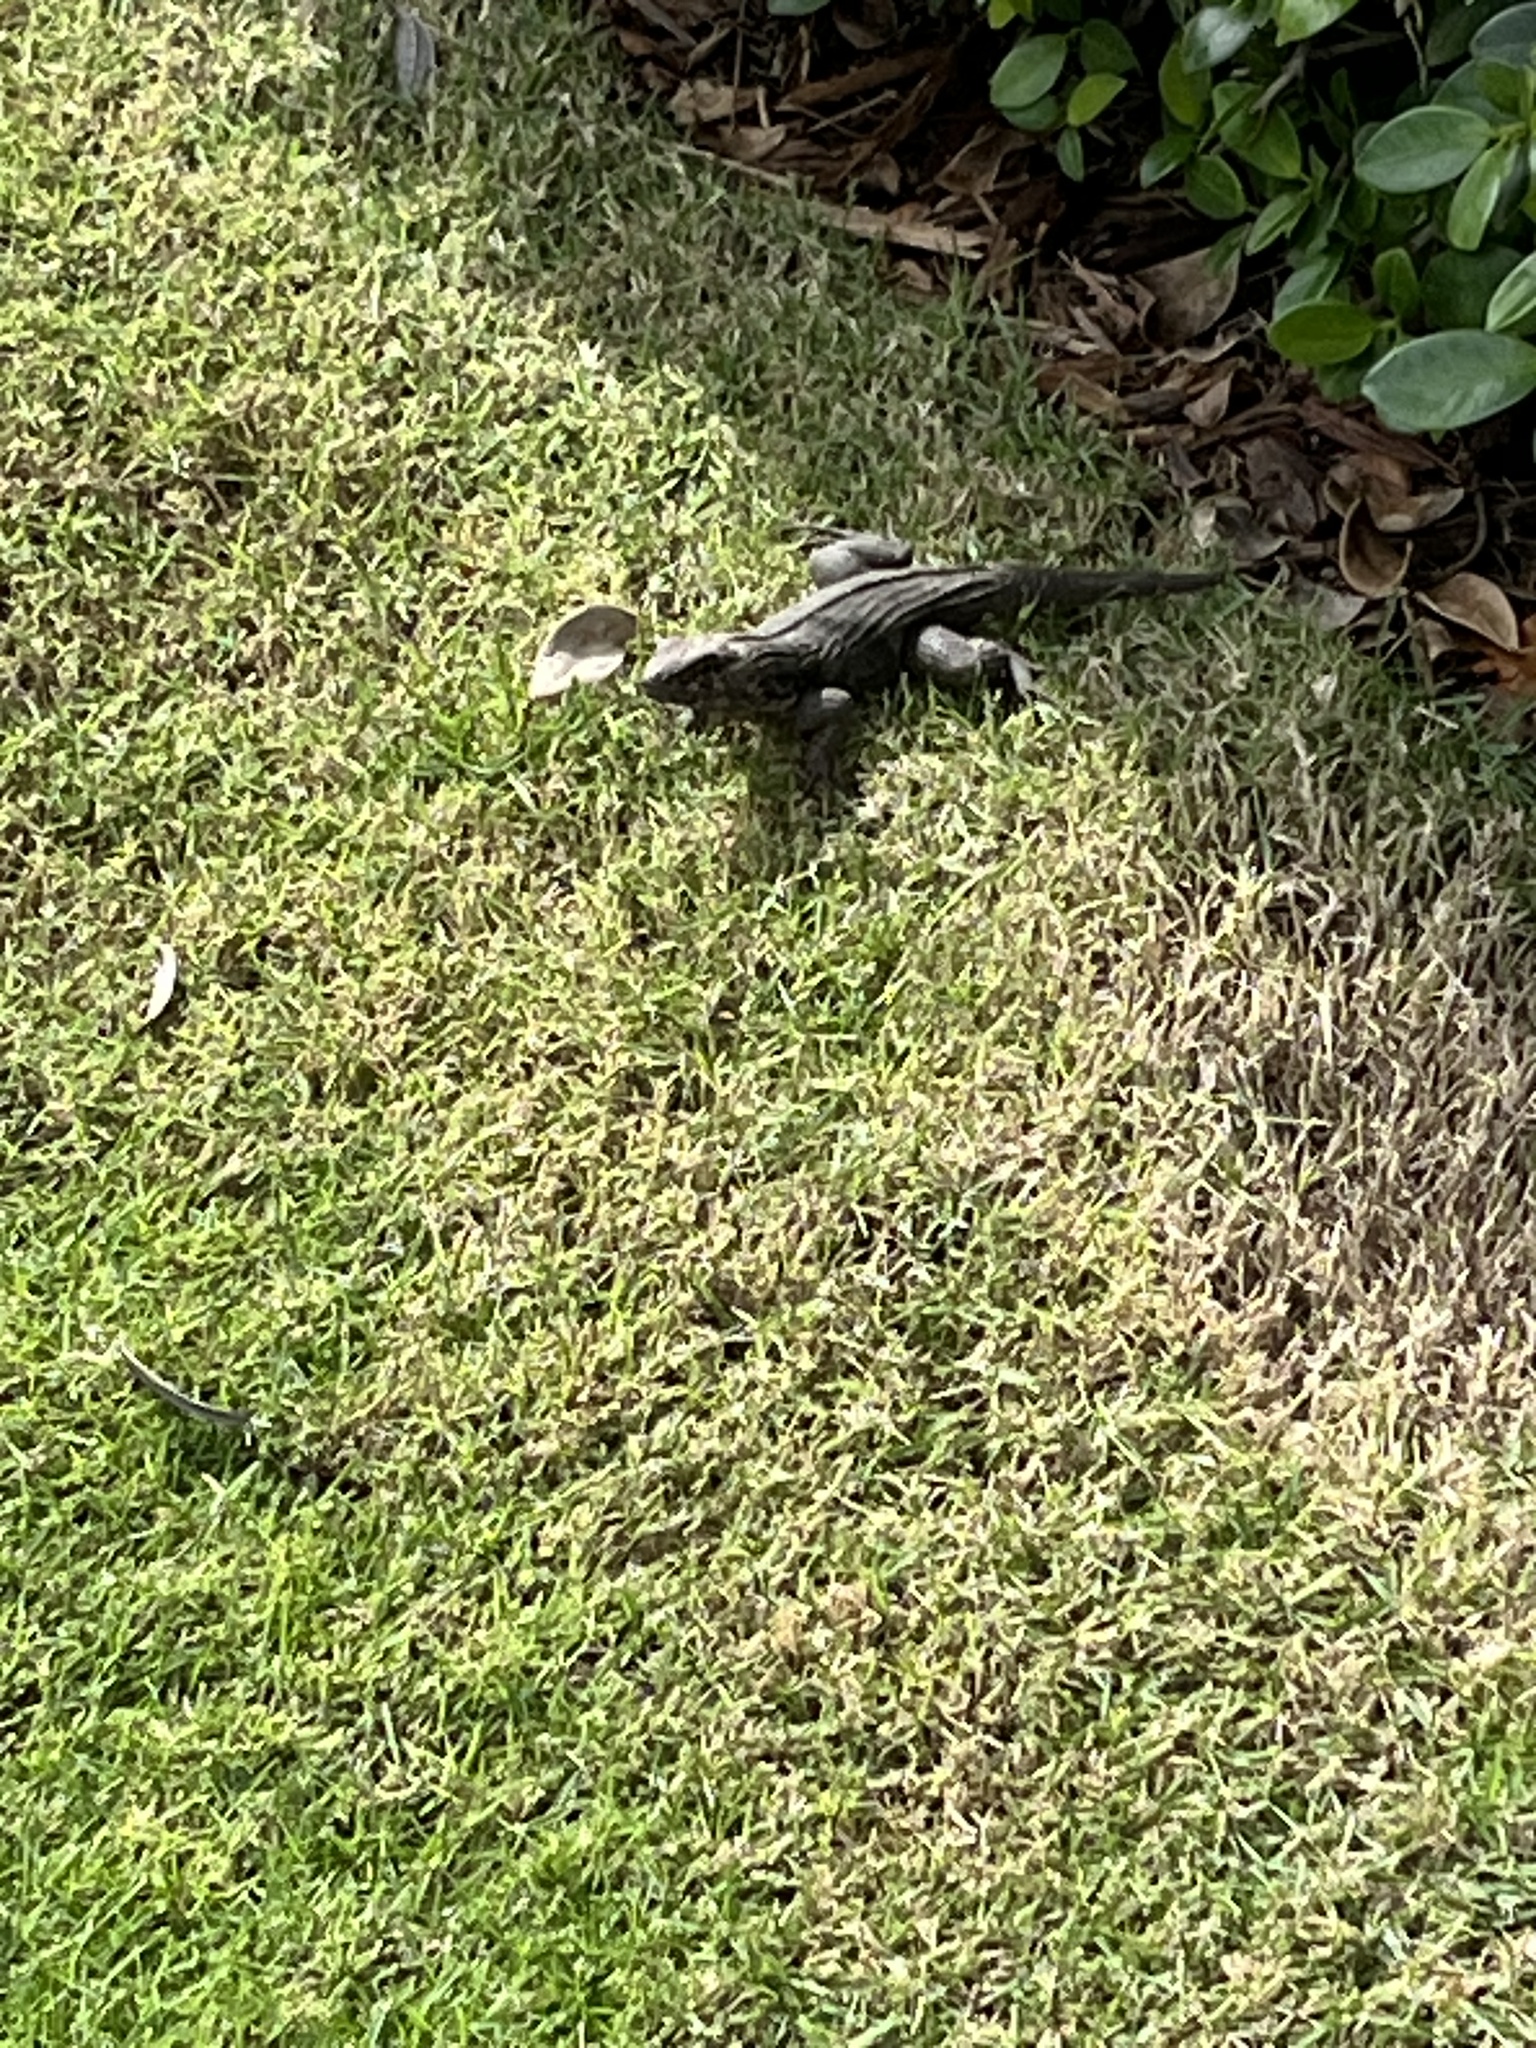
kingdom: Animalia
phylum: Chordata
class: Squamata
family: Leiocephalidae
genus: Leiocephalus
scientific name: Leiocephalus varius
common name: Cayman curlytail
